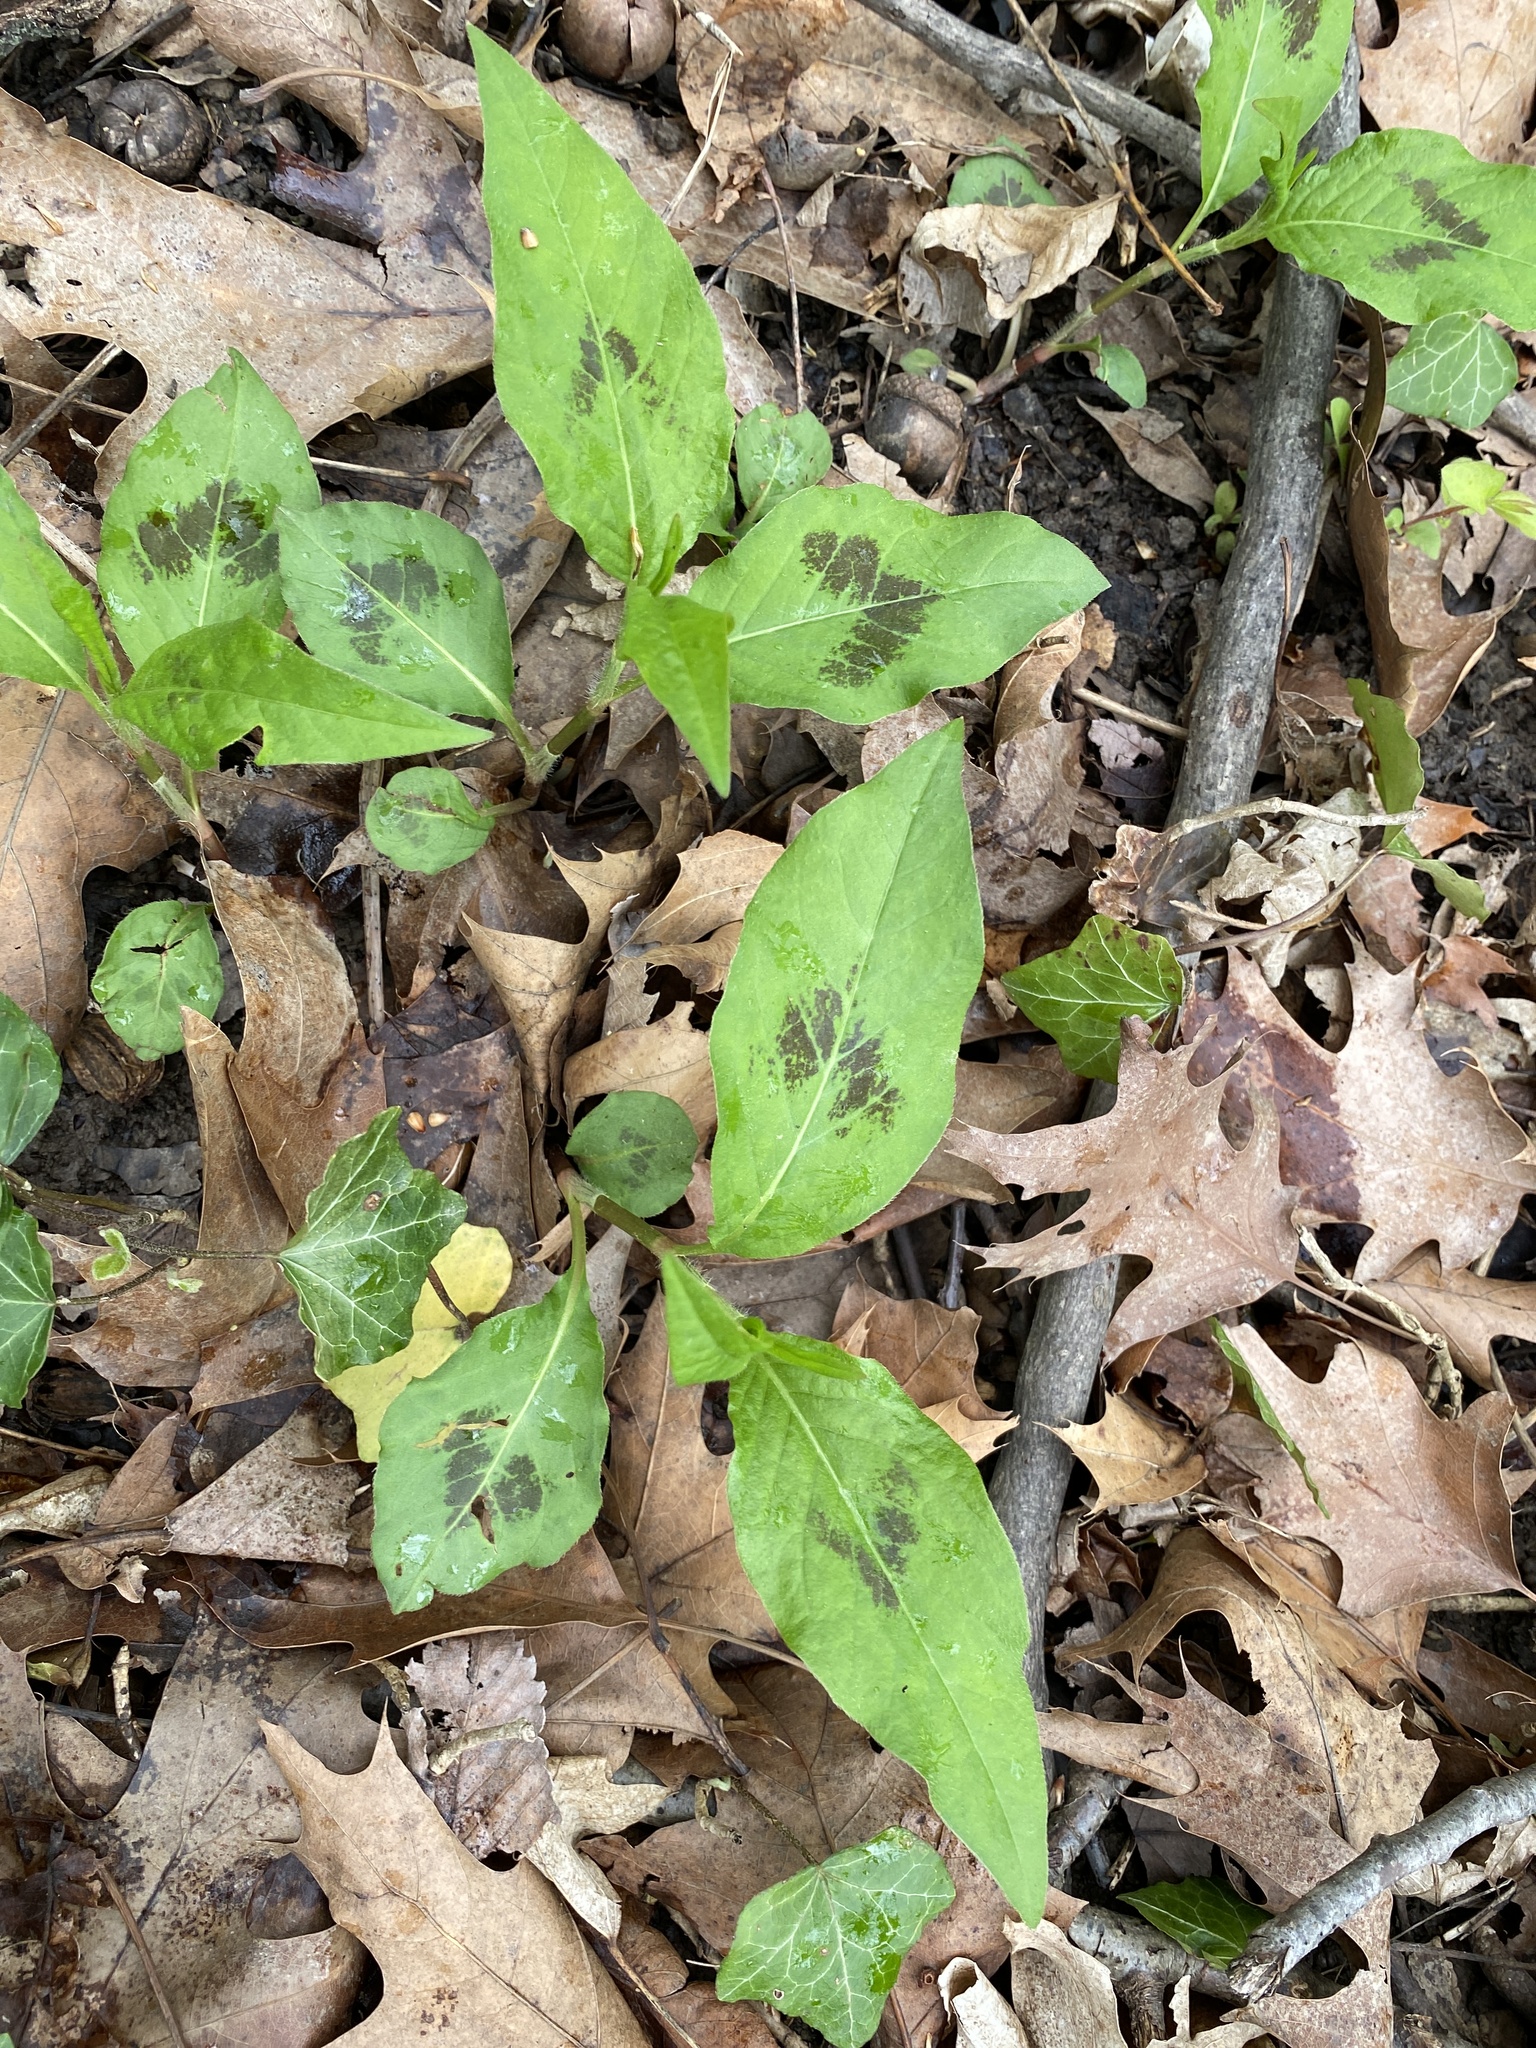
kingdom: Plantae
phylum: Tracheophyta
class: Magnoliopsida
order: Caryophyllales
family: Polygonaceae
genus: Persicaria
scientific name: Persicaria virginiana
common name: Jumpseed
